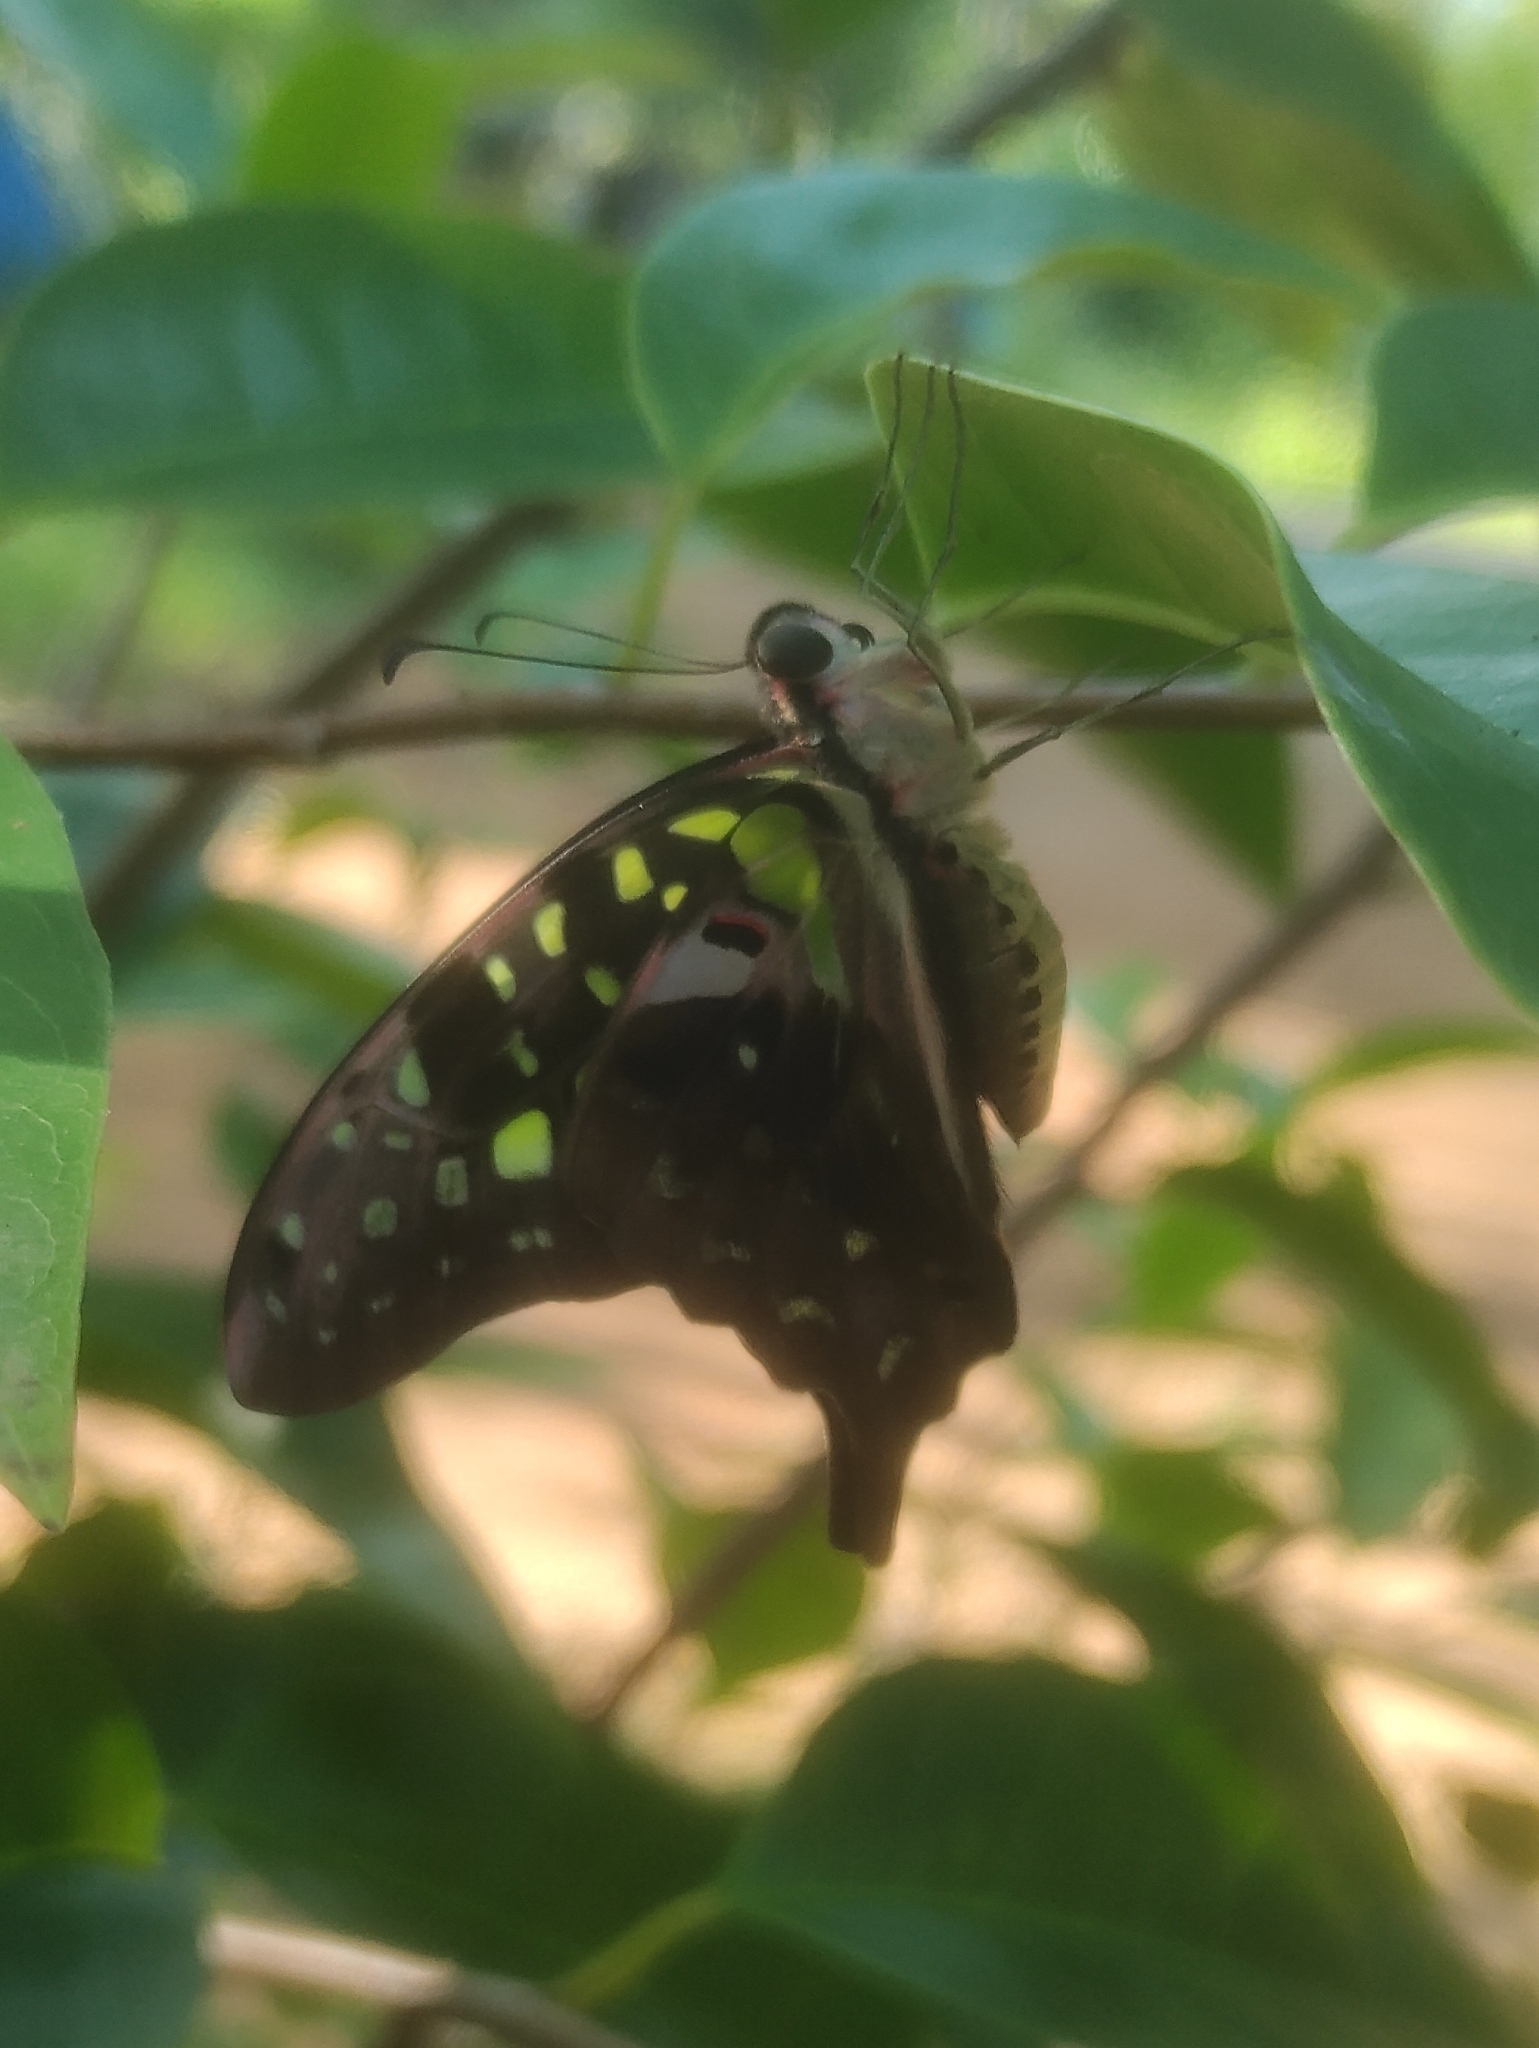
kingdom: Animalia
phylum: Arthropoda
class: Insecta
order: Lepidoptera
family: Papilionidae
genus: Graphium
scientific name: Graphium agamemnon
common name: Tailed jay
